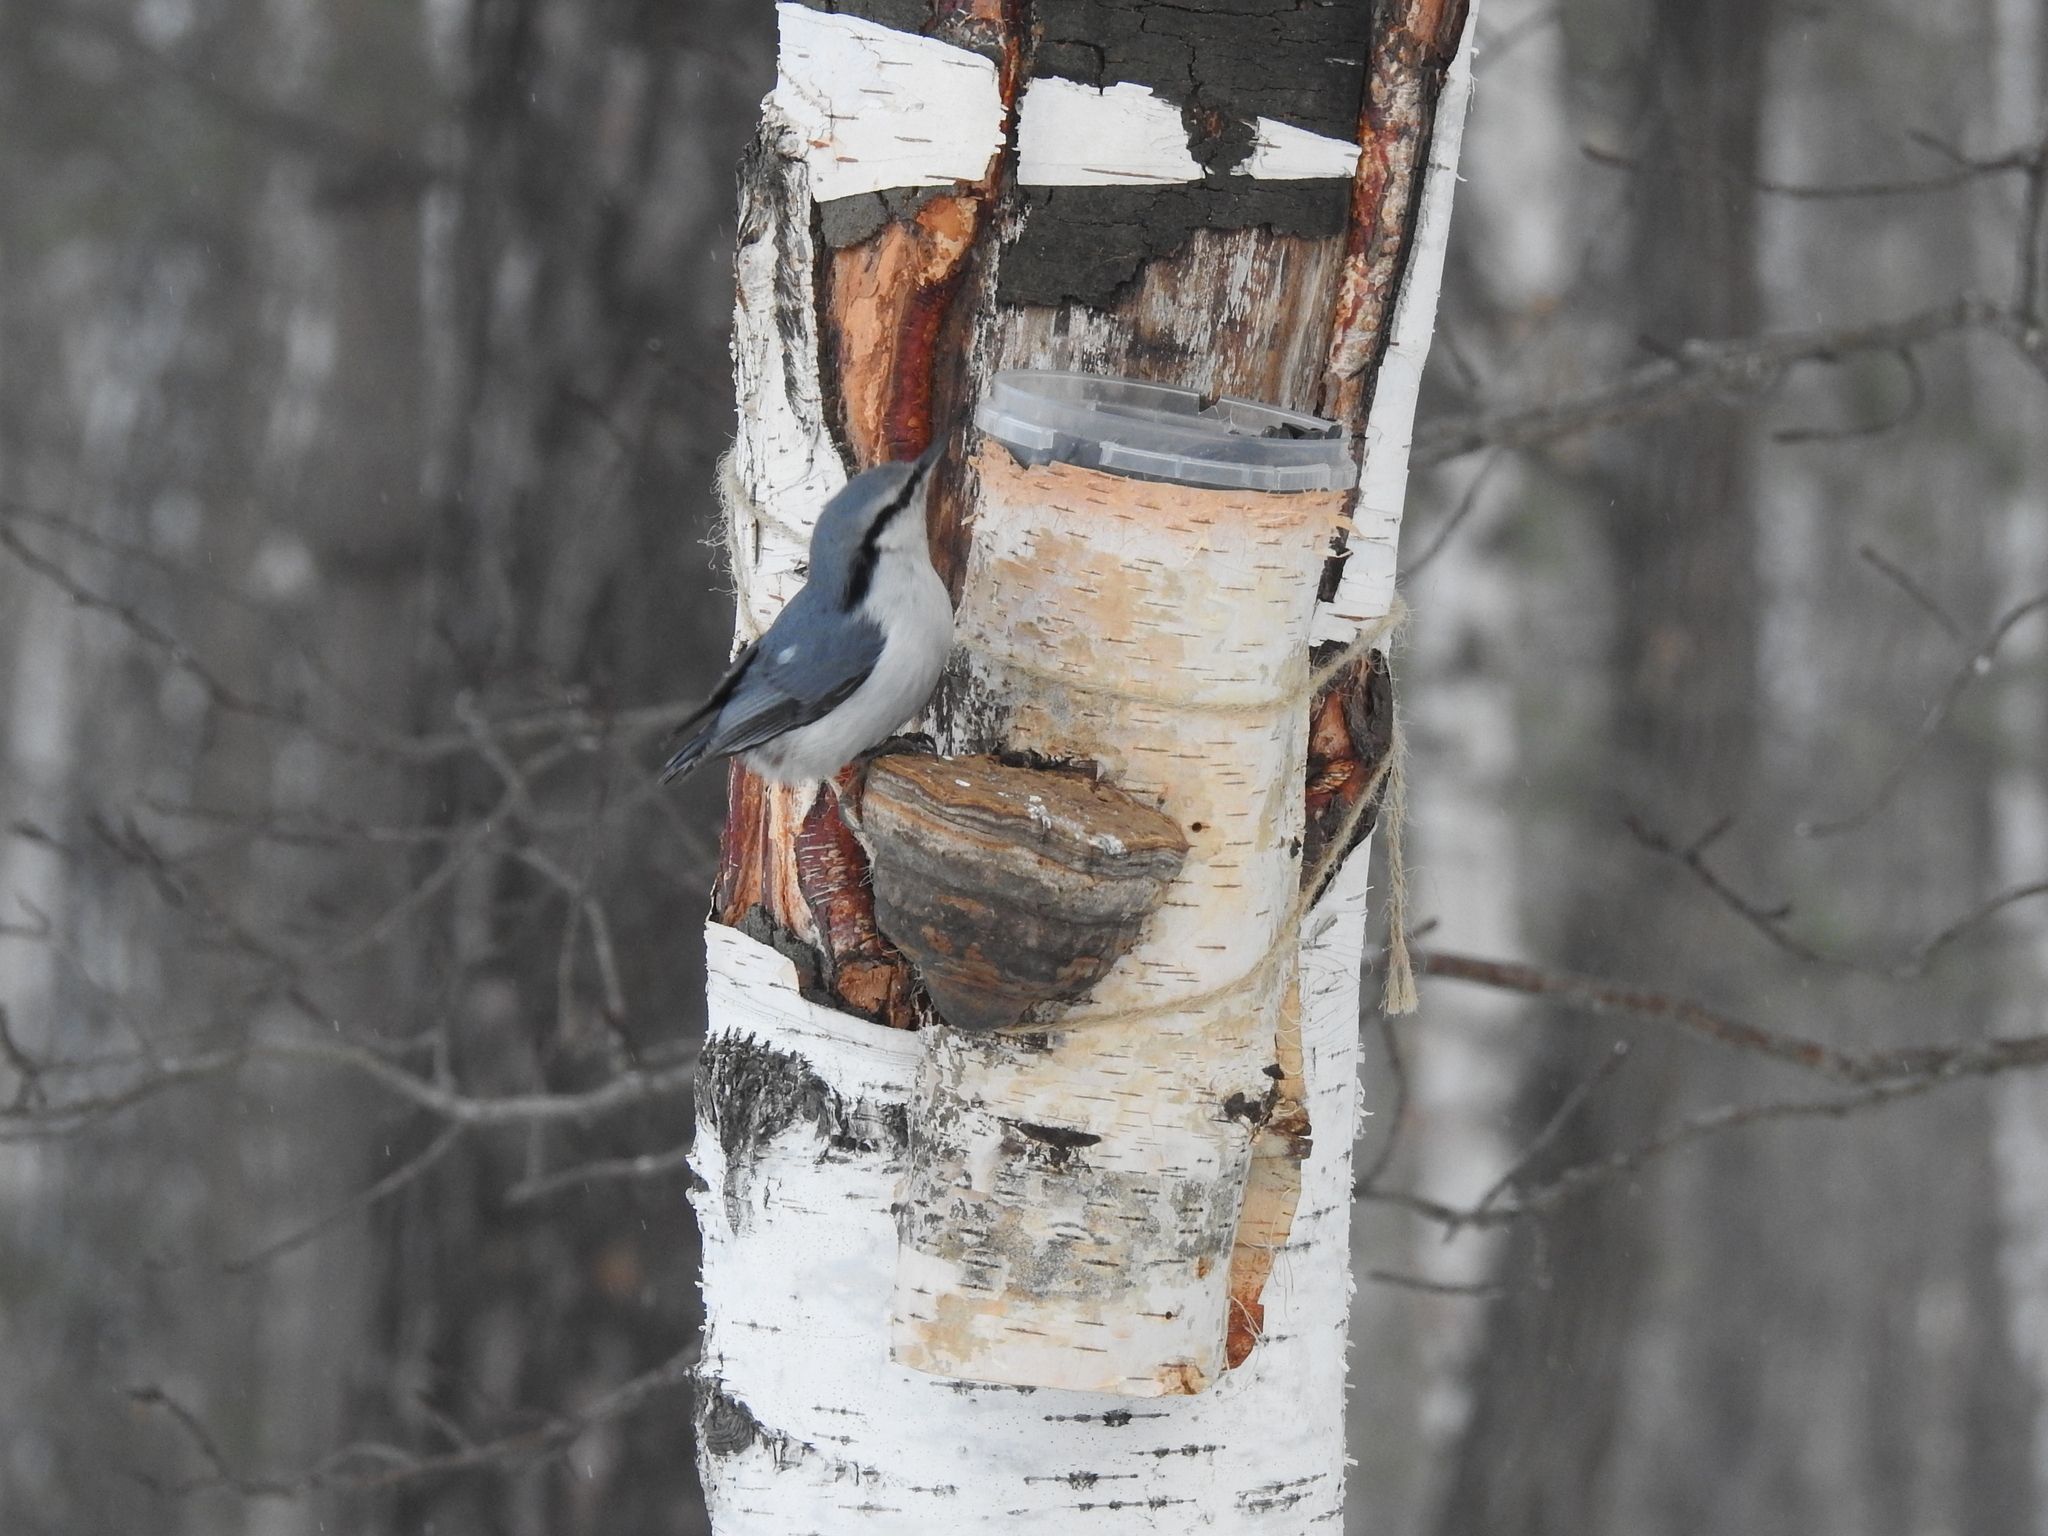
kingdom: Animalia
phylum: Chordata
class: Aves
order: Passeriformes
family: Sittidae
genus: Sitta
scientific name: Sitta europaea
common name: Eurasian nuthatch
